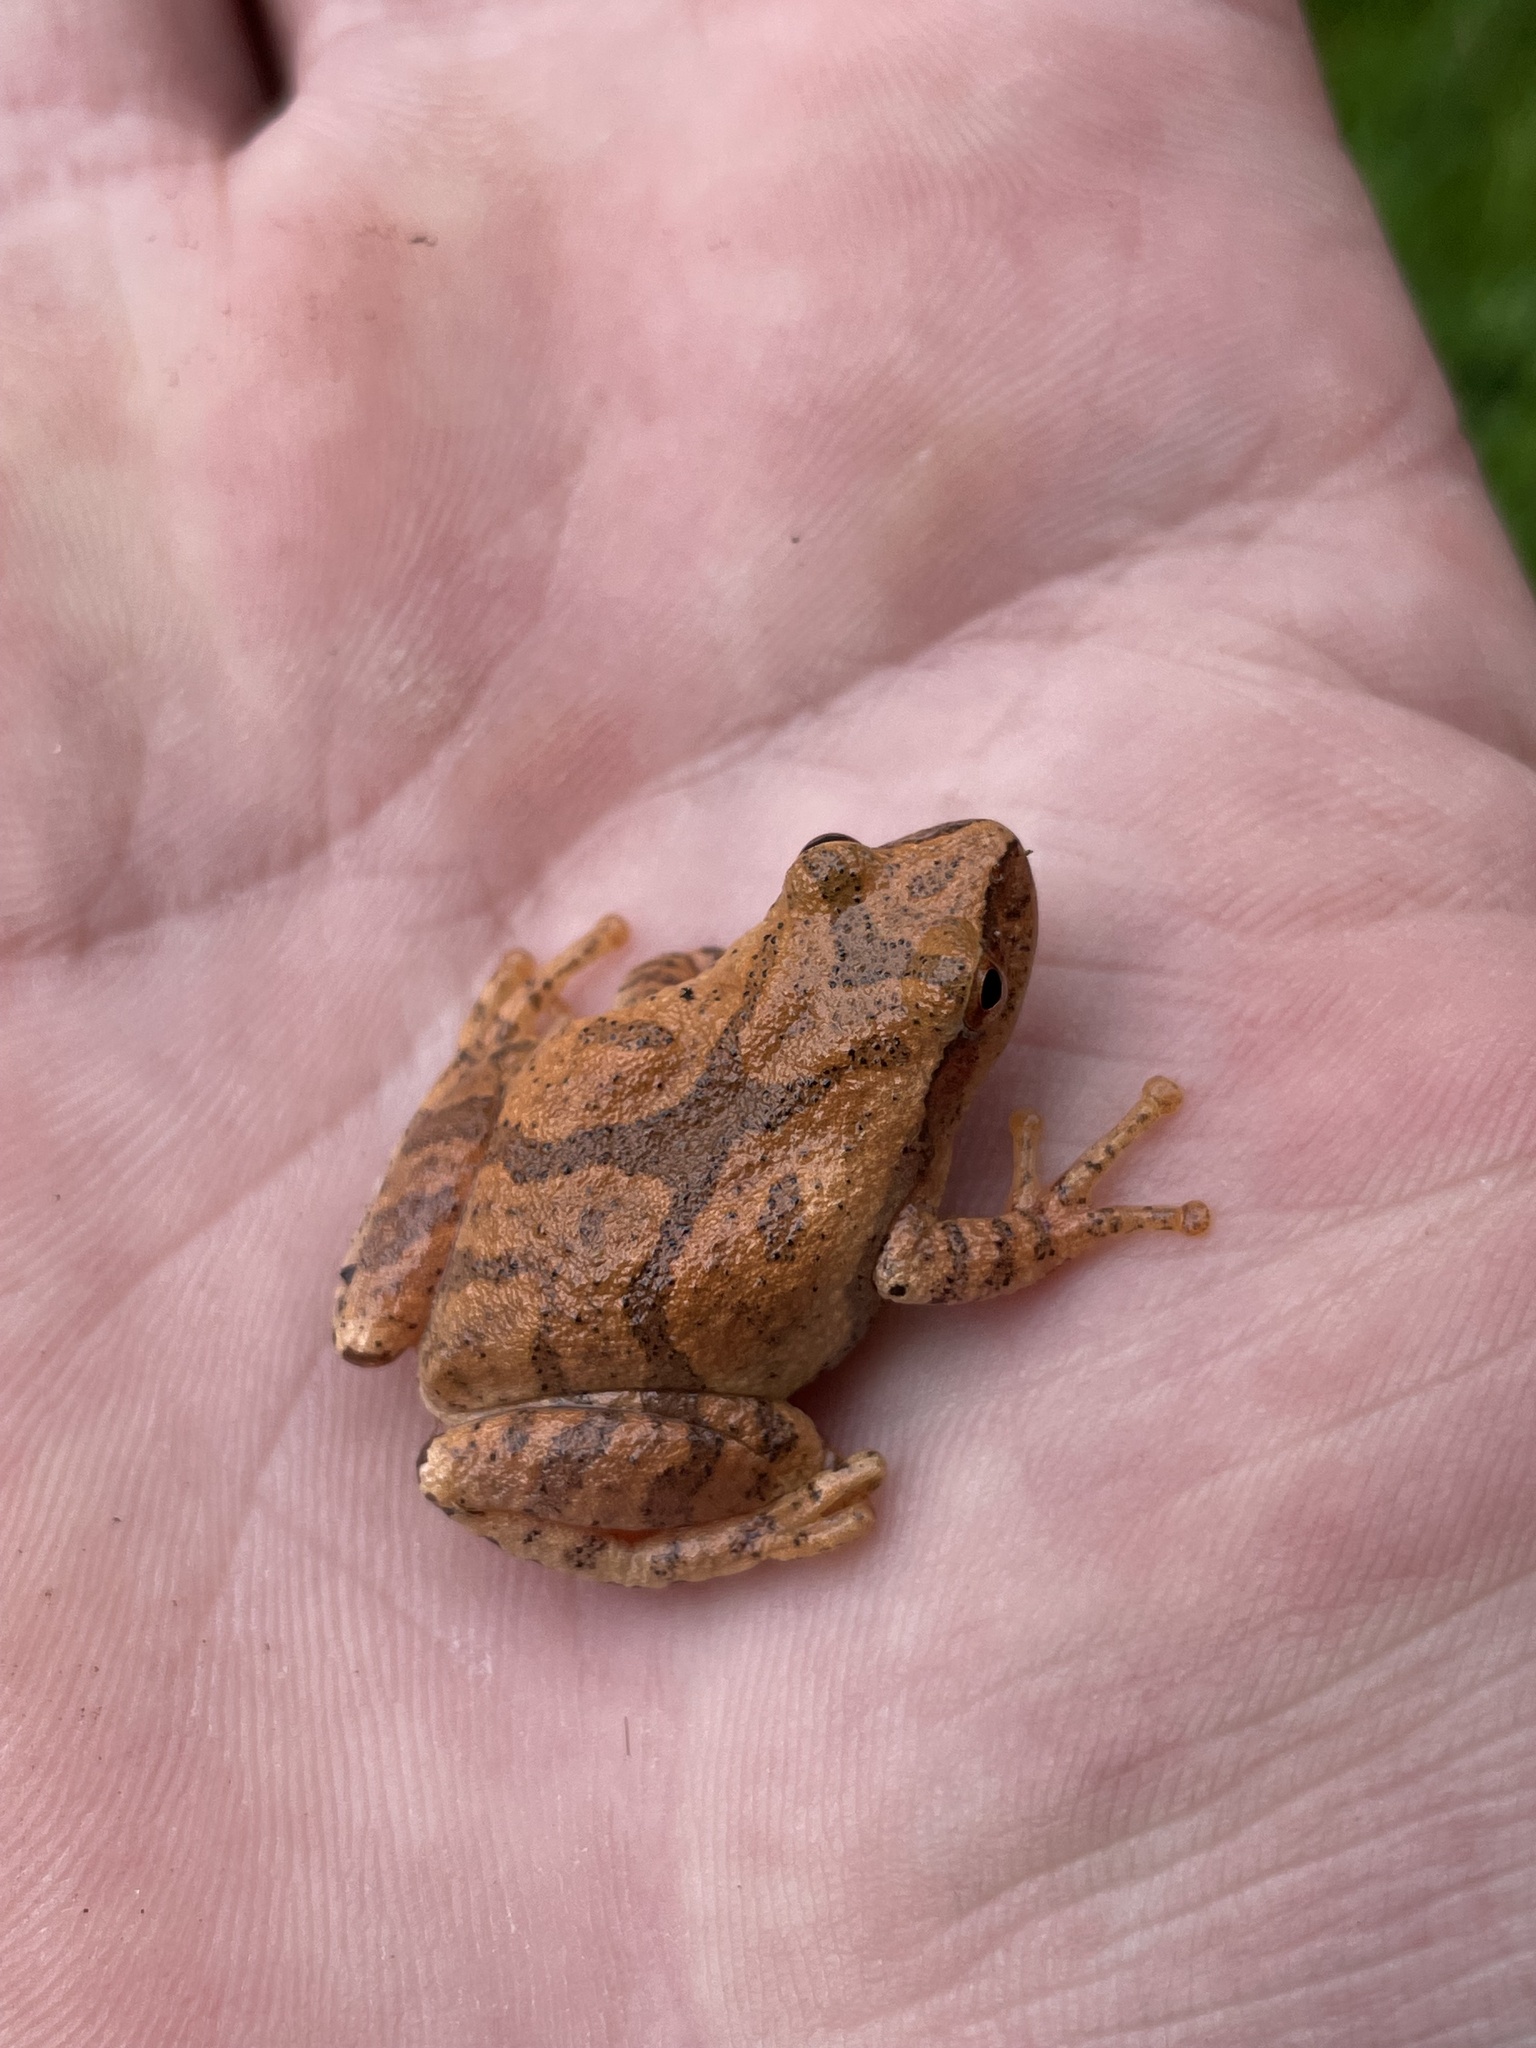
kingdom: Animalia
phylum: Chordata
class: Amphibia
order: Anura
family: Hylidae
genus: Pseudacris
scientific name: Pseudacris crucifer
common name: Spring peeper
